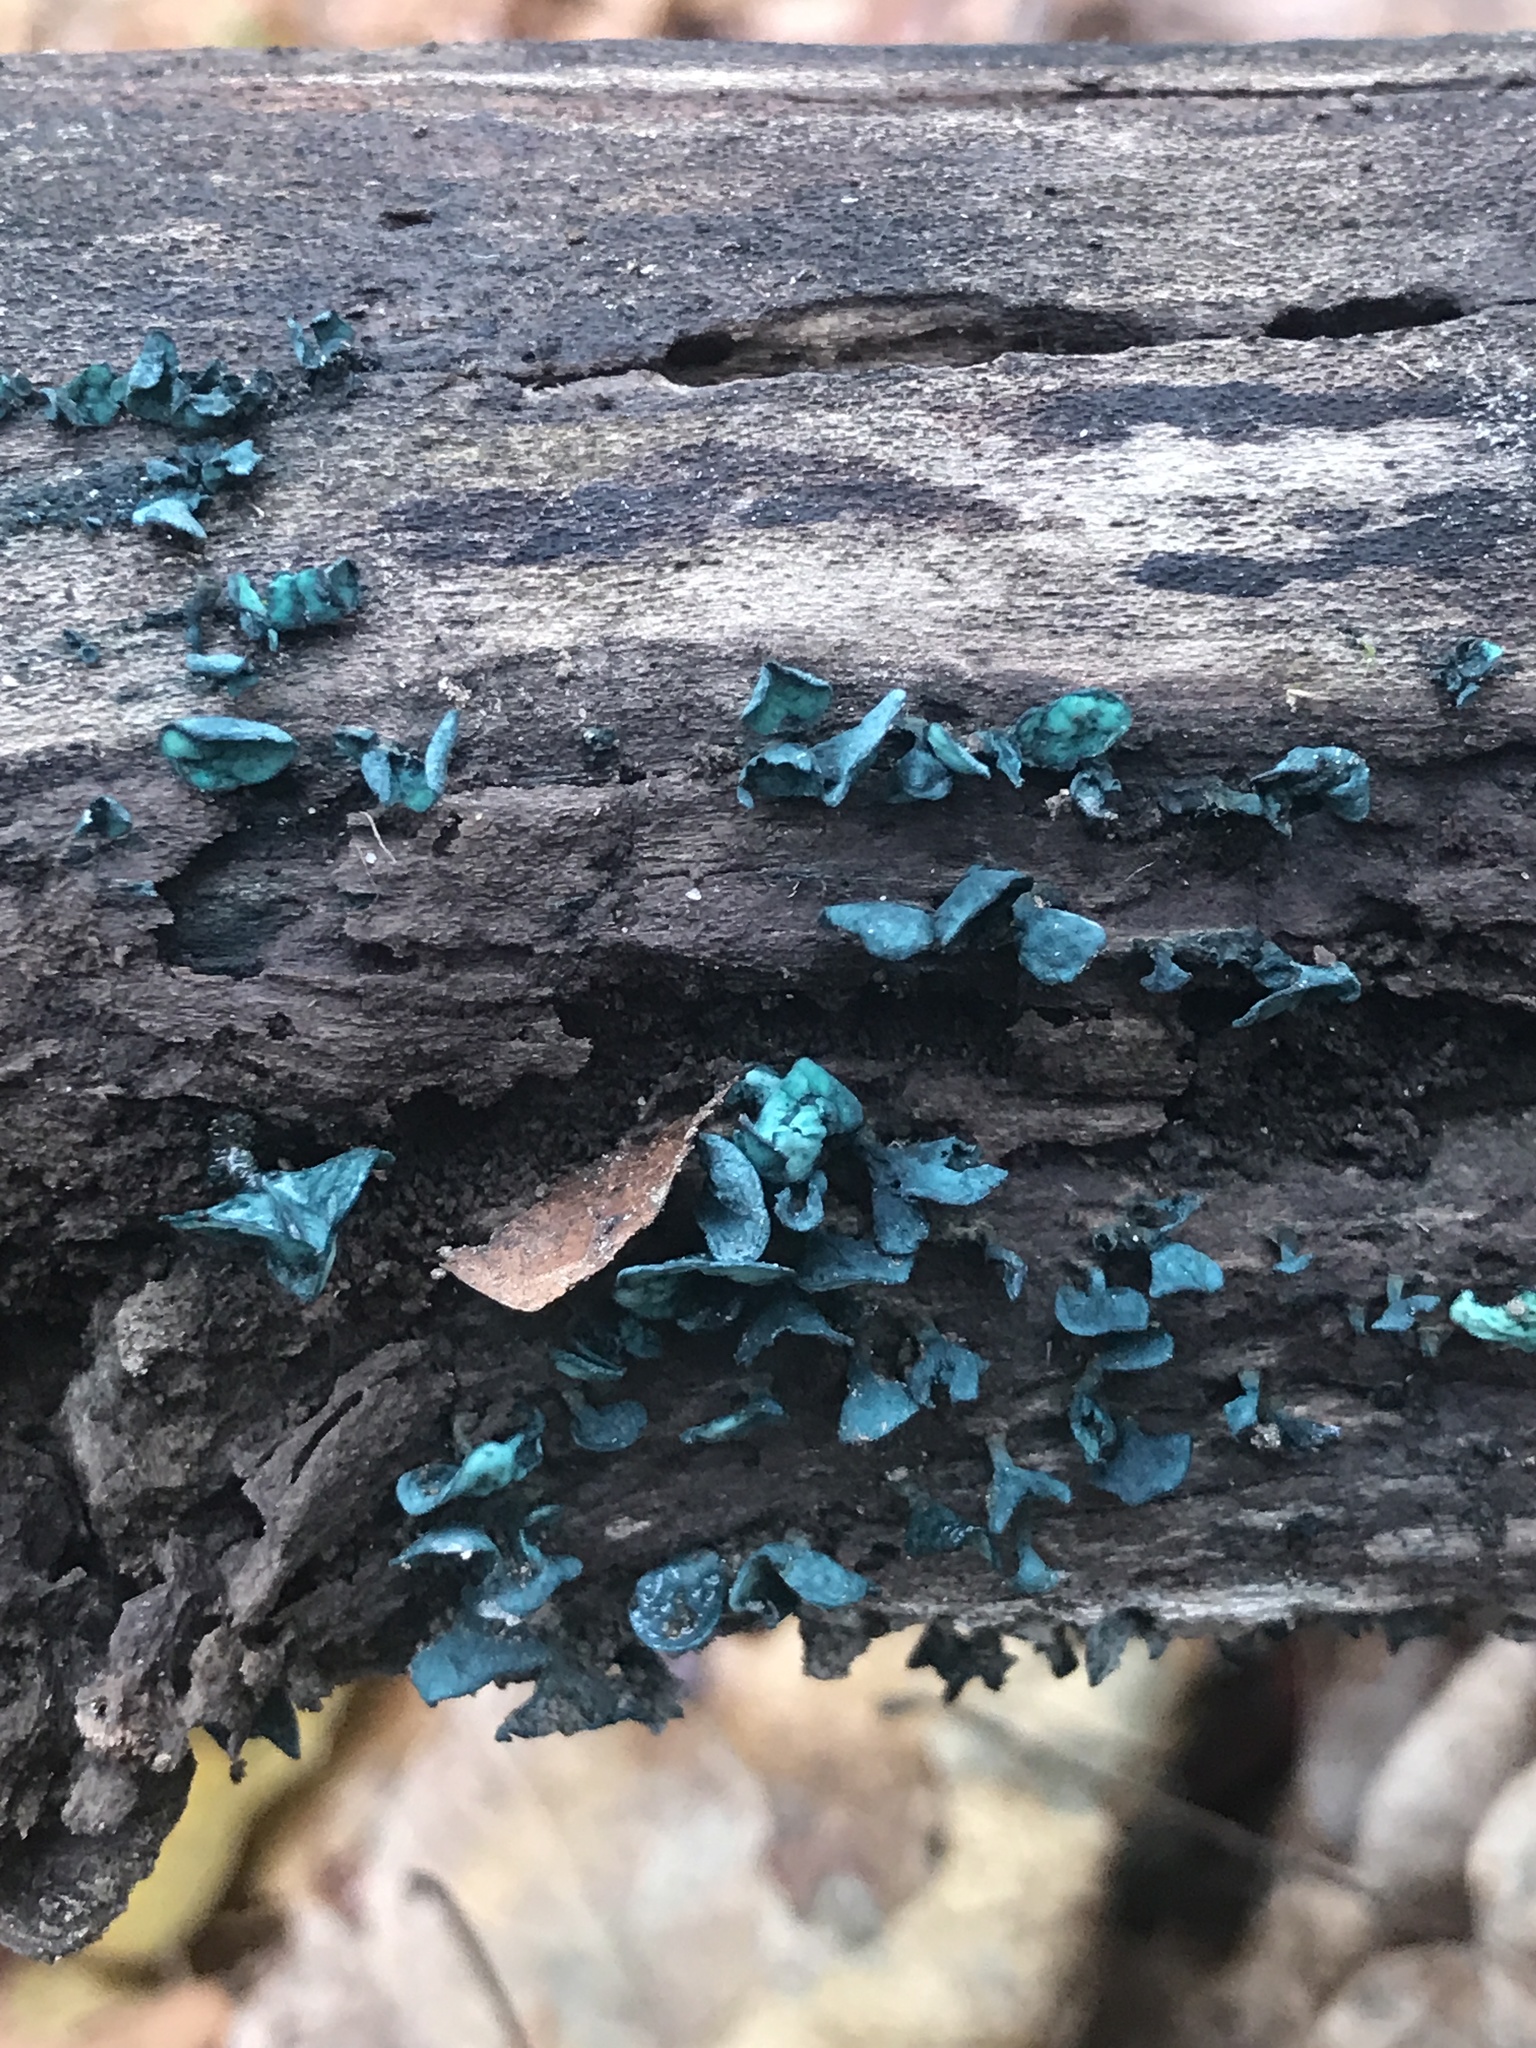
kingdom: Fungi
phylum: Ascomycota
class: Leotiomycetes
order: Helotiales
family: Chlorociboriaceae
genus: Chlorociboria
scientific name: Chlorociboria aeruginascens
